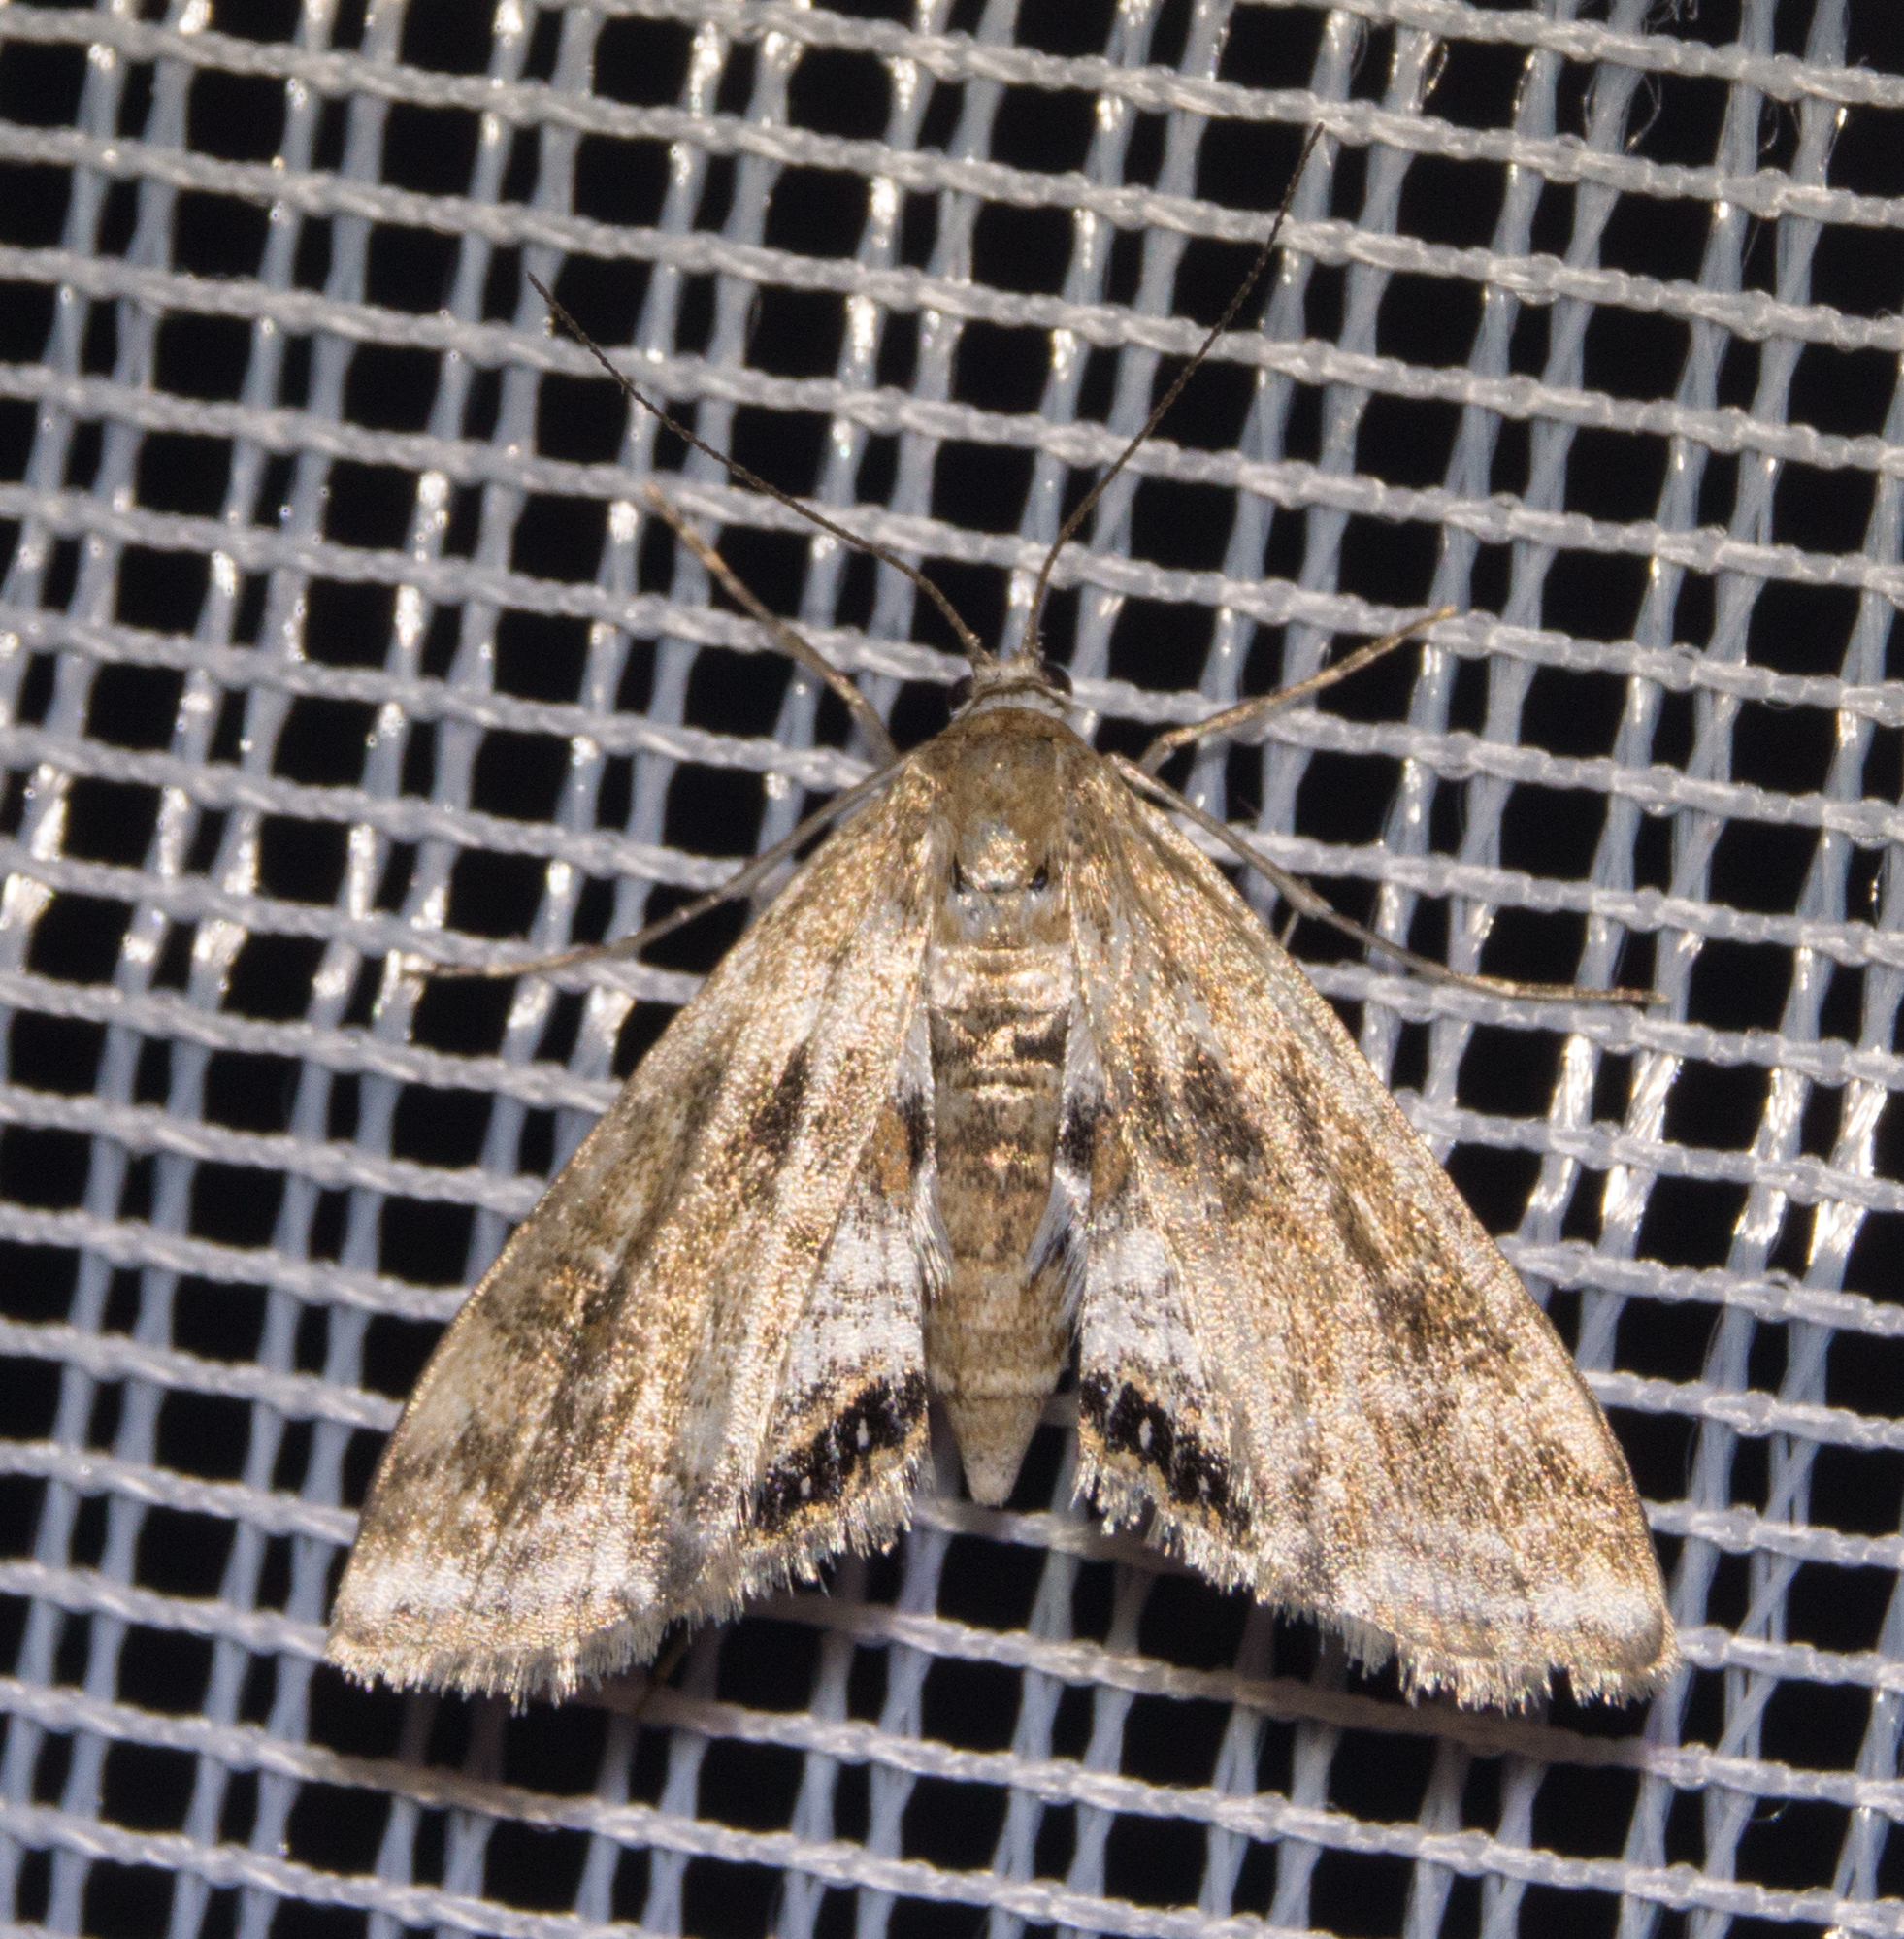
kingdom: Animalia
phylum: Arthropoda
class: Insecta
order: Lepidoptera
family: Crambidae
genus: Cataclysta
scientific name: Cataclysta lemnata
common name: Small china-mark
